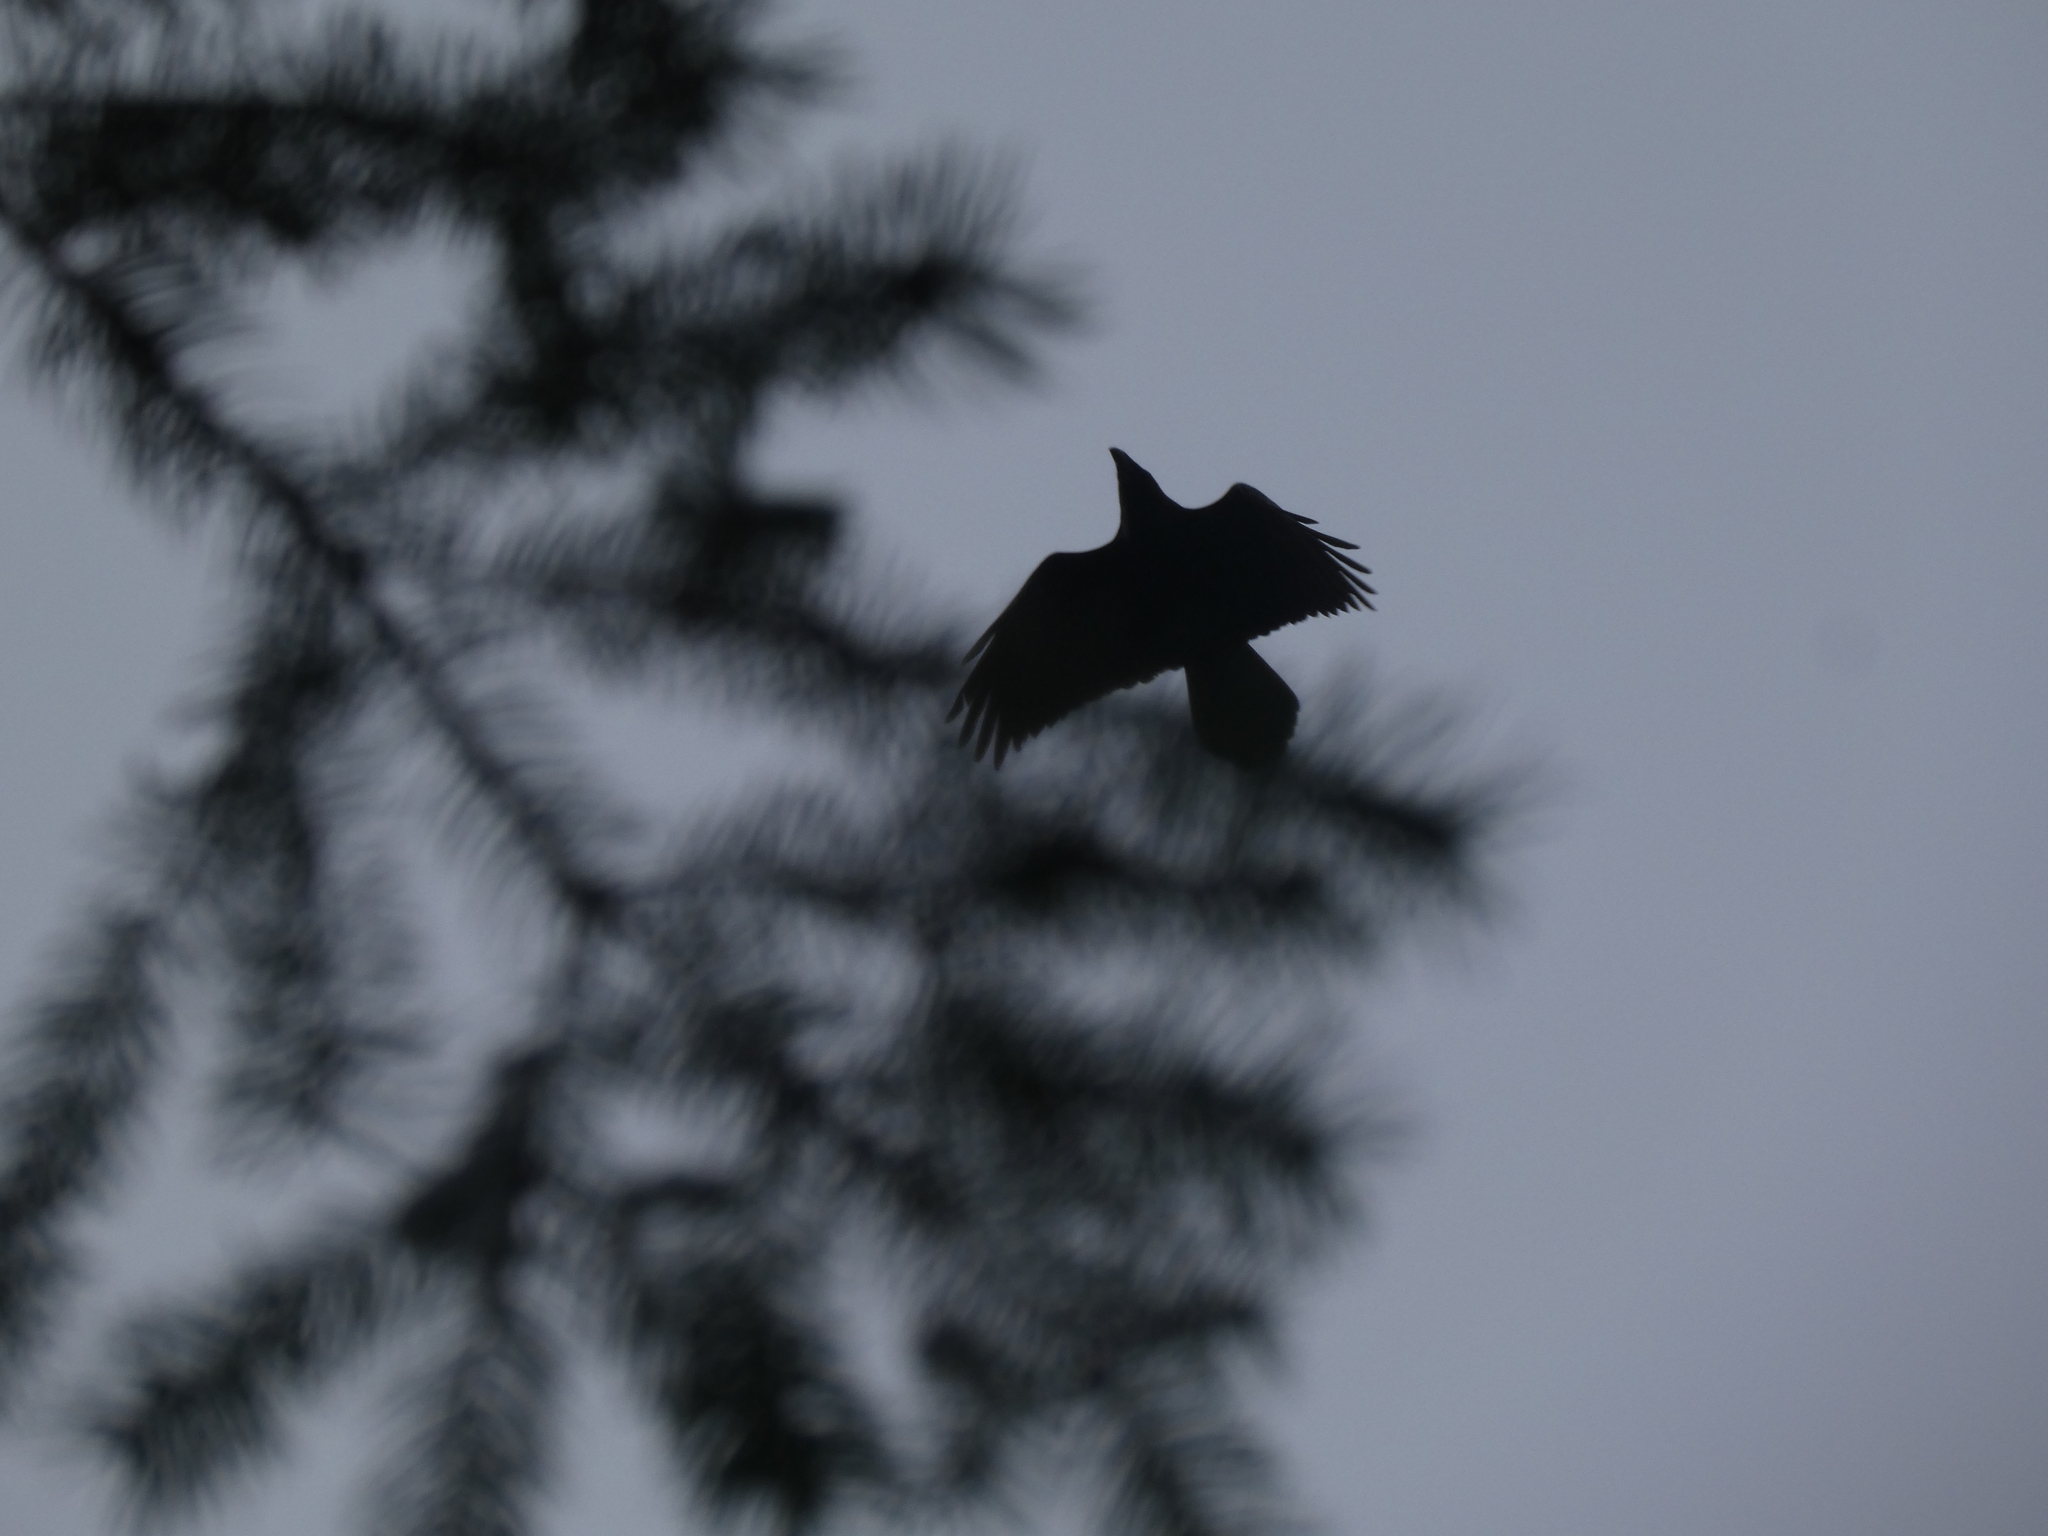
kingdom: Animalia
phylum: Chordata
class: Aves
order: Passeriformes
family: Corvidae
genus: Corvus
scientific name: Corvus corax
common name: Common raven
